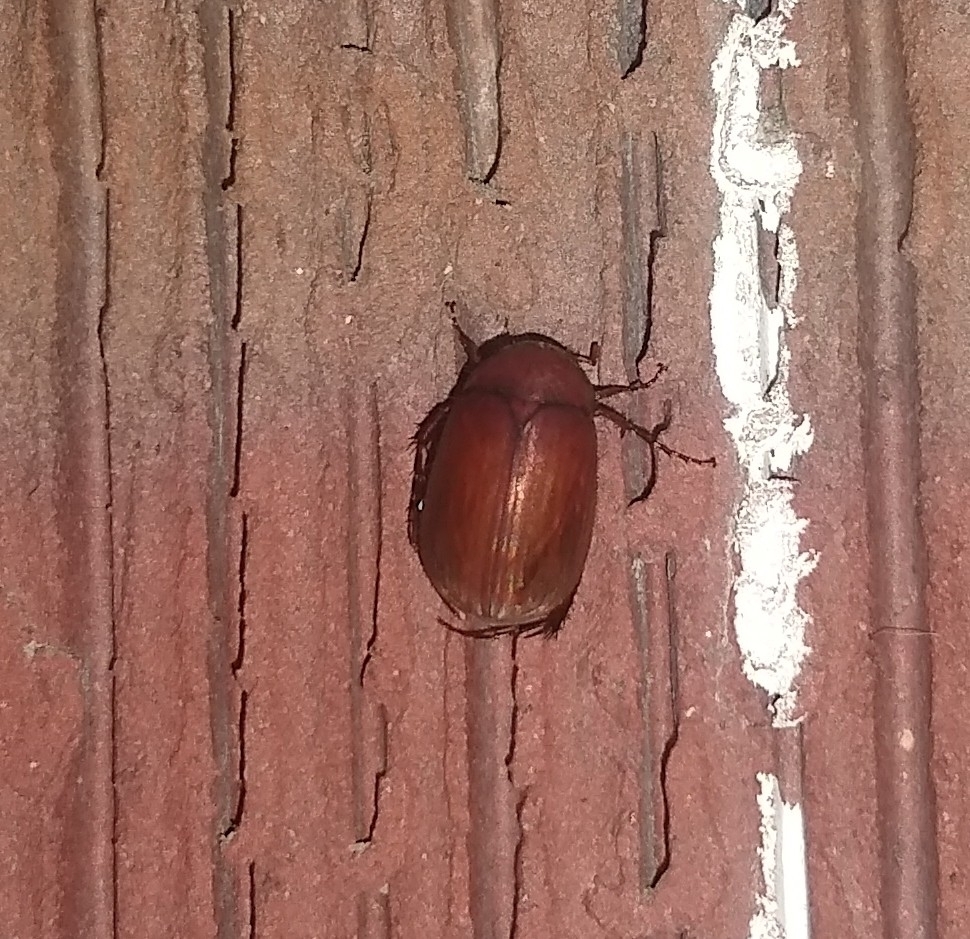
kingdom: Animalia
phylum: Arthropoda
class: Insecta
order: Coleoptera
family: Scarabaeidae
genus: Maladera
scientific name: Maladera formosae
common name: Asiatic garden beetle
